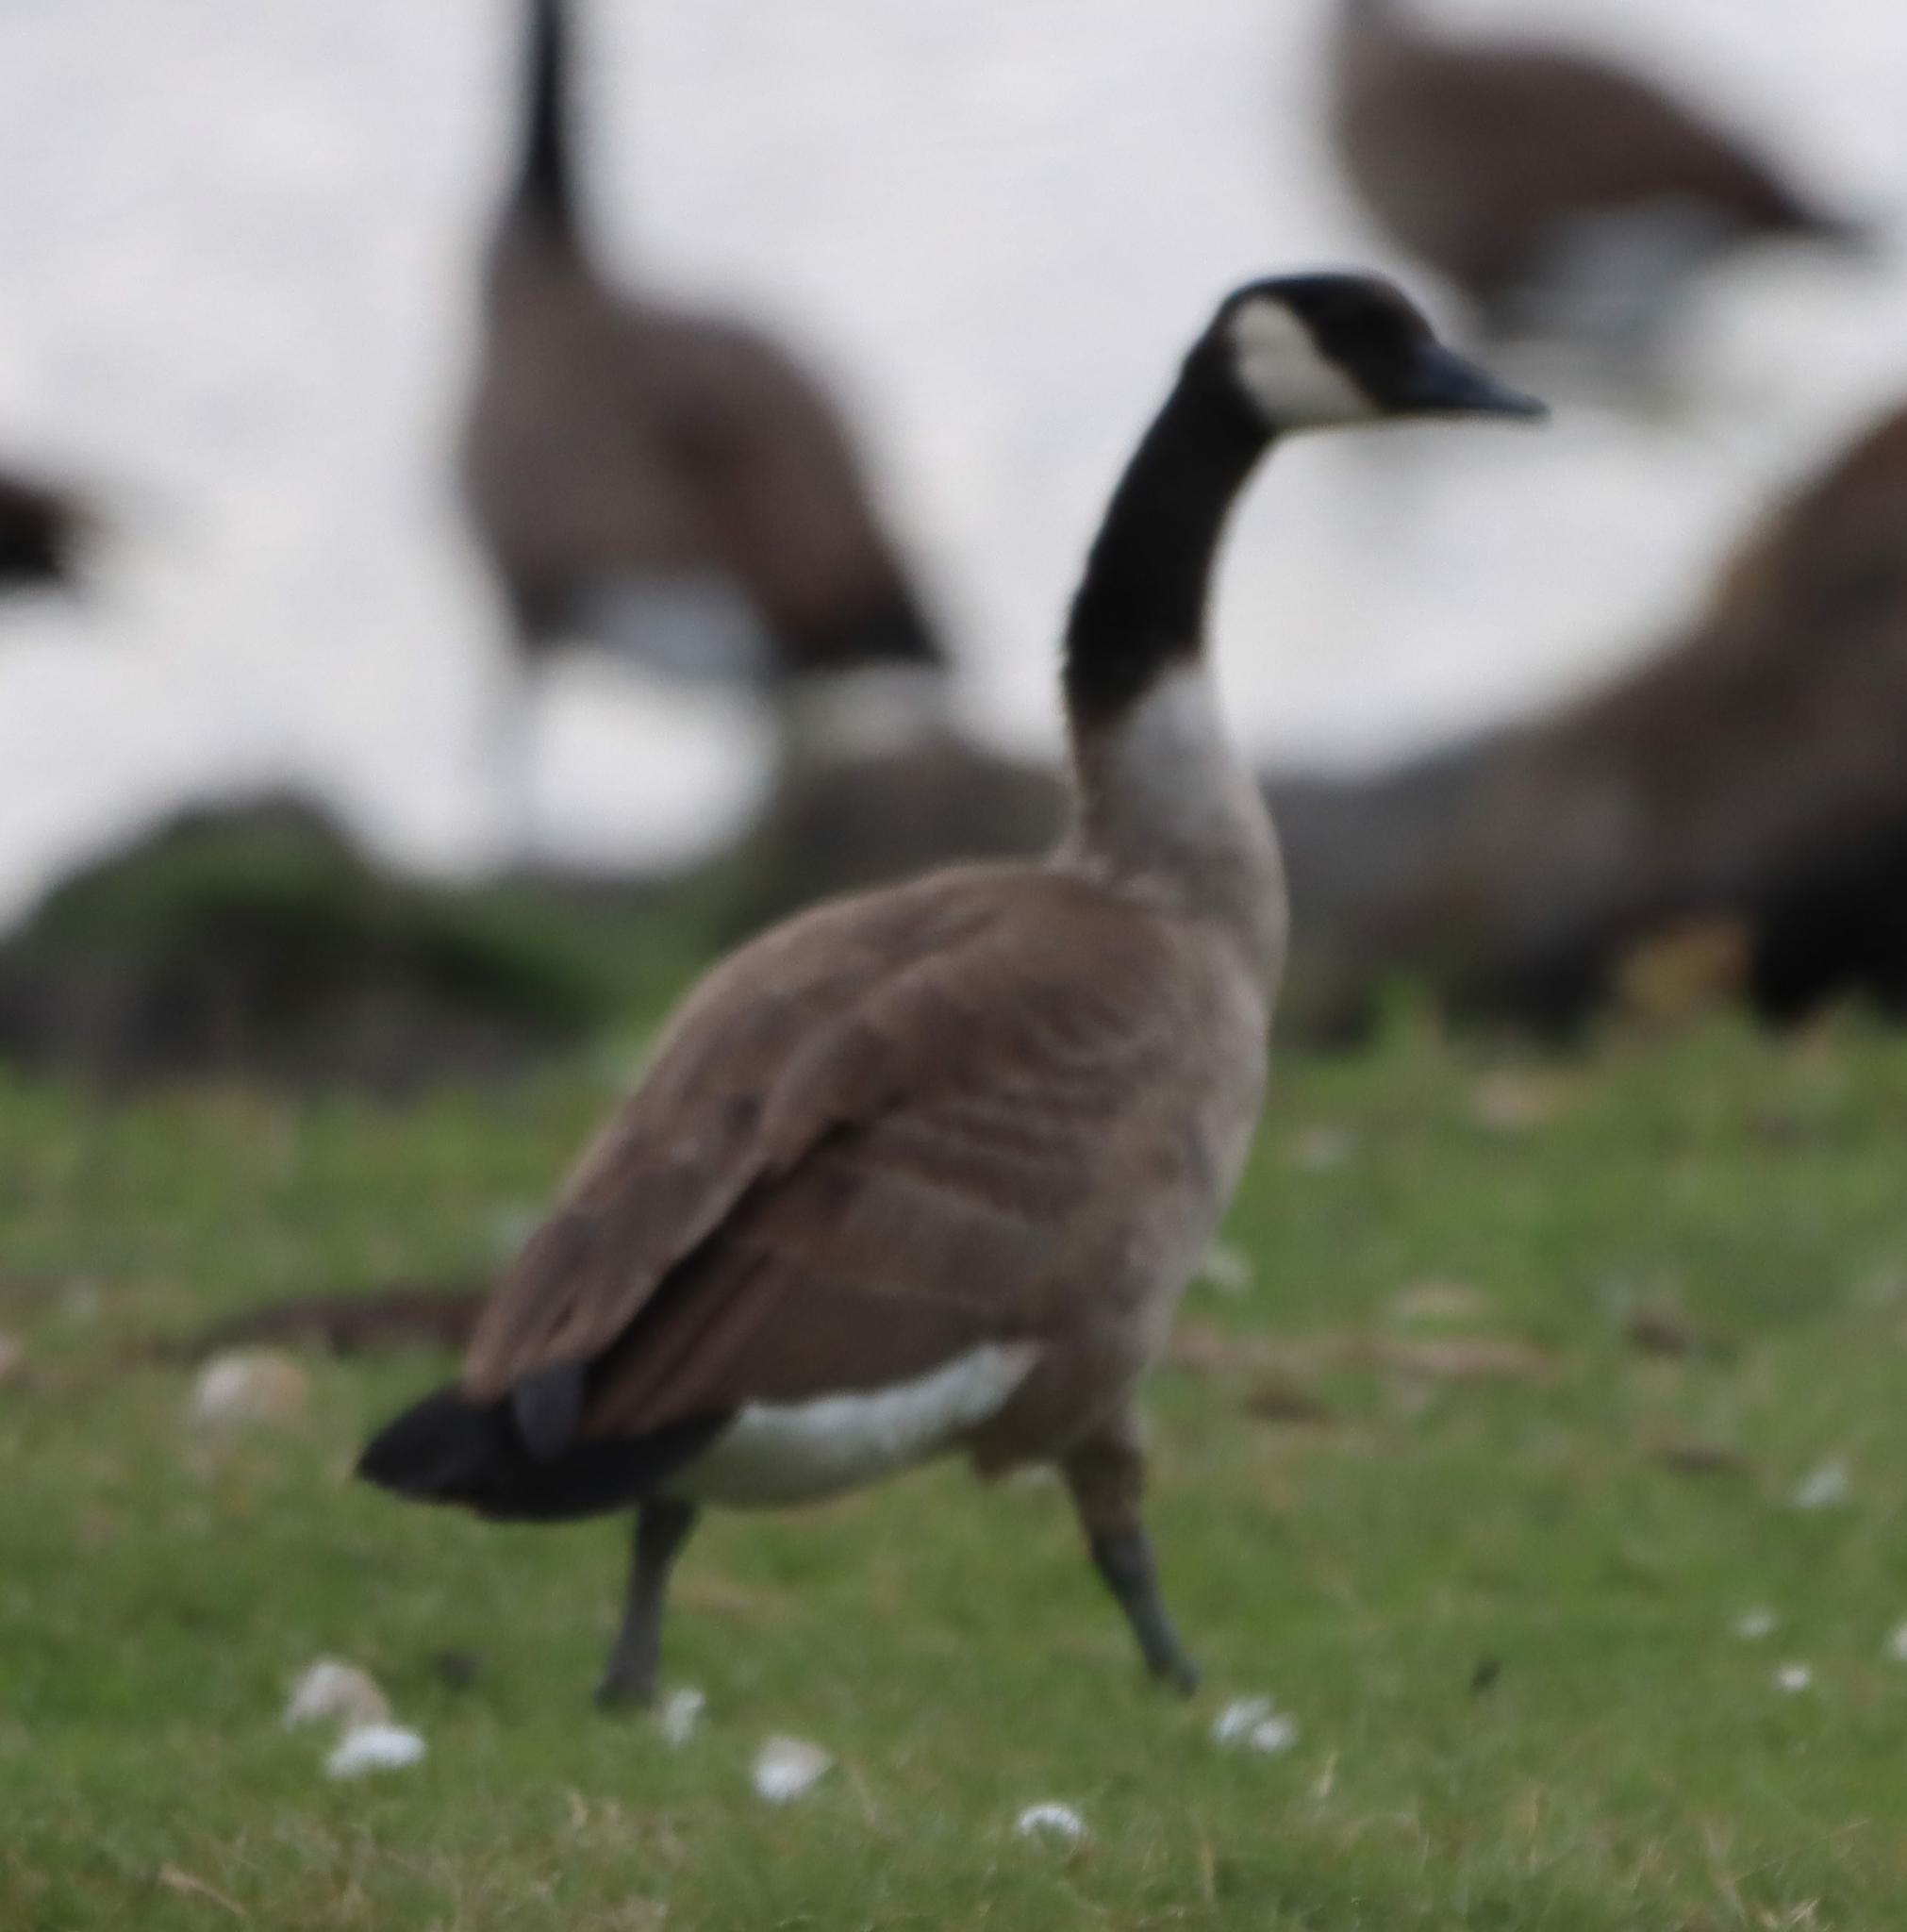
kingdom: Animalia
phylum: Chordata
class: Aves
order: Anseriformes
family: Anatidae
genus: Branta
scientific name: Branta canadensis
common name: Canada goose
